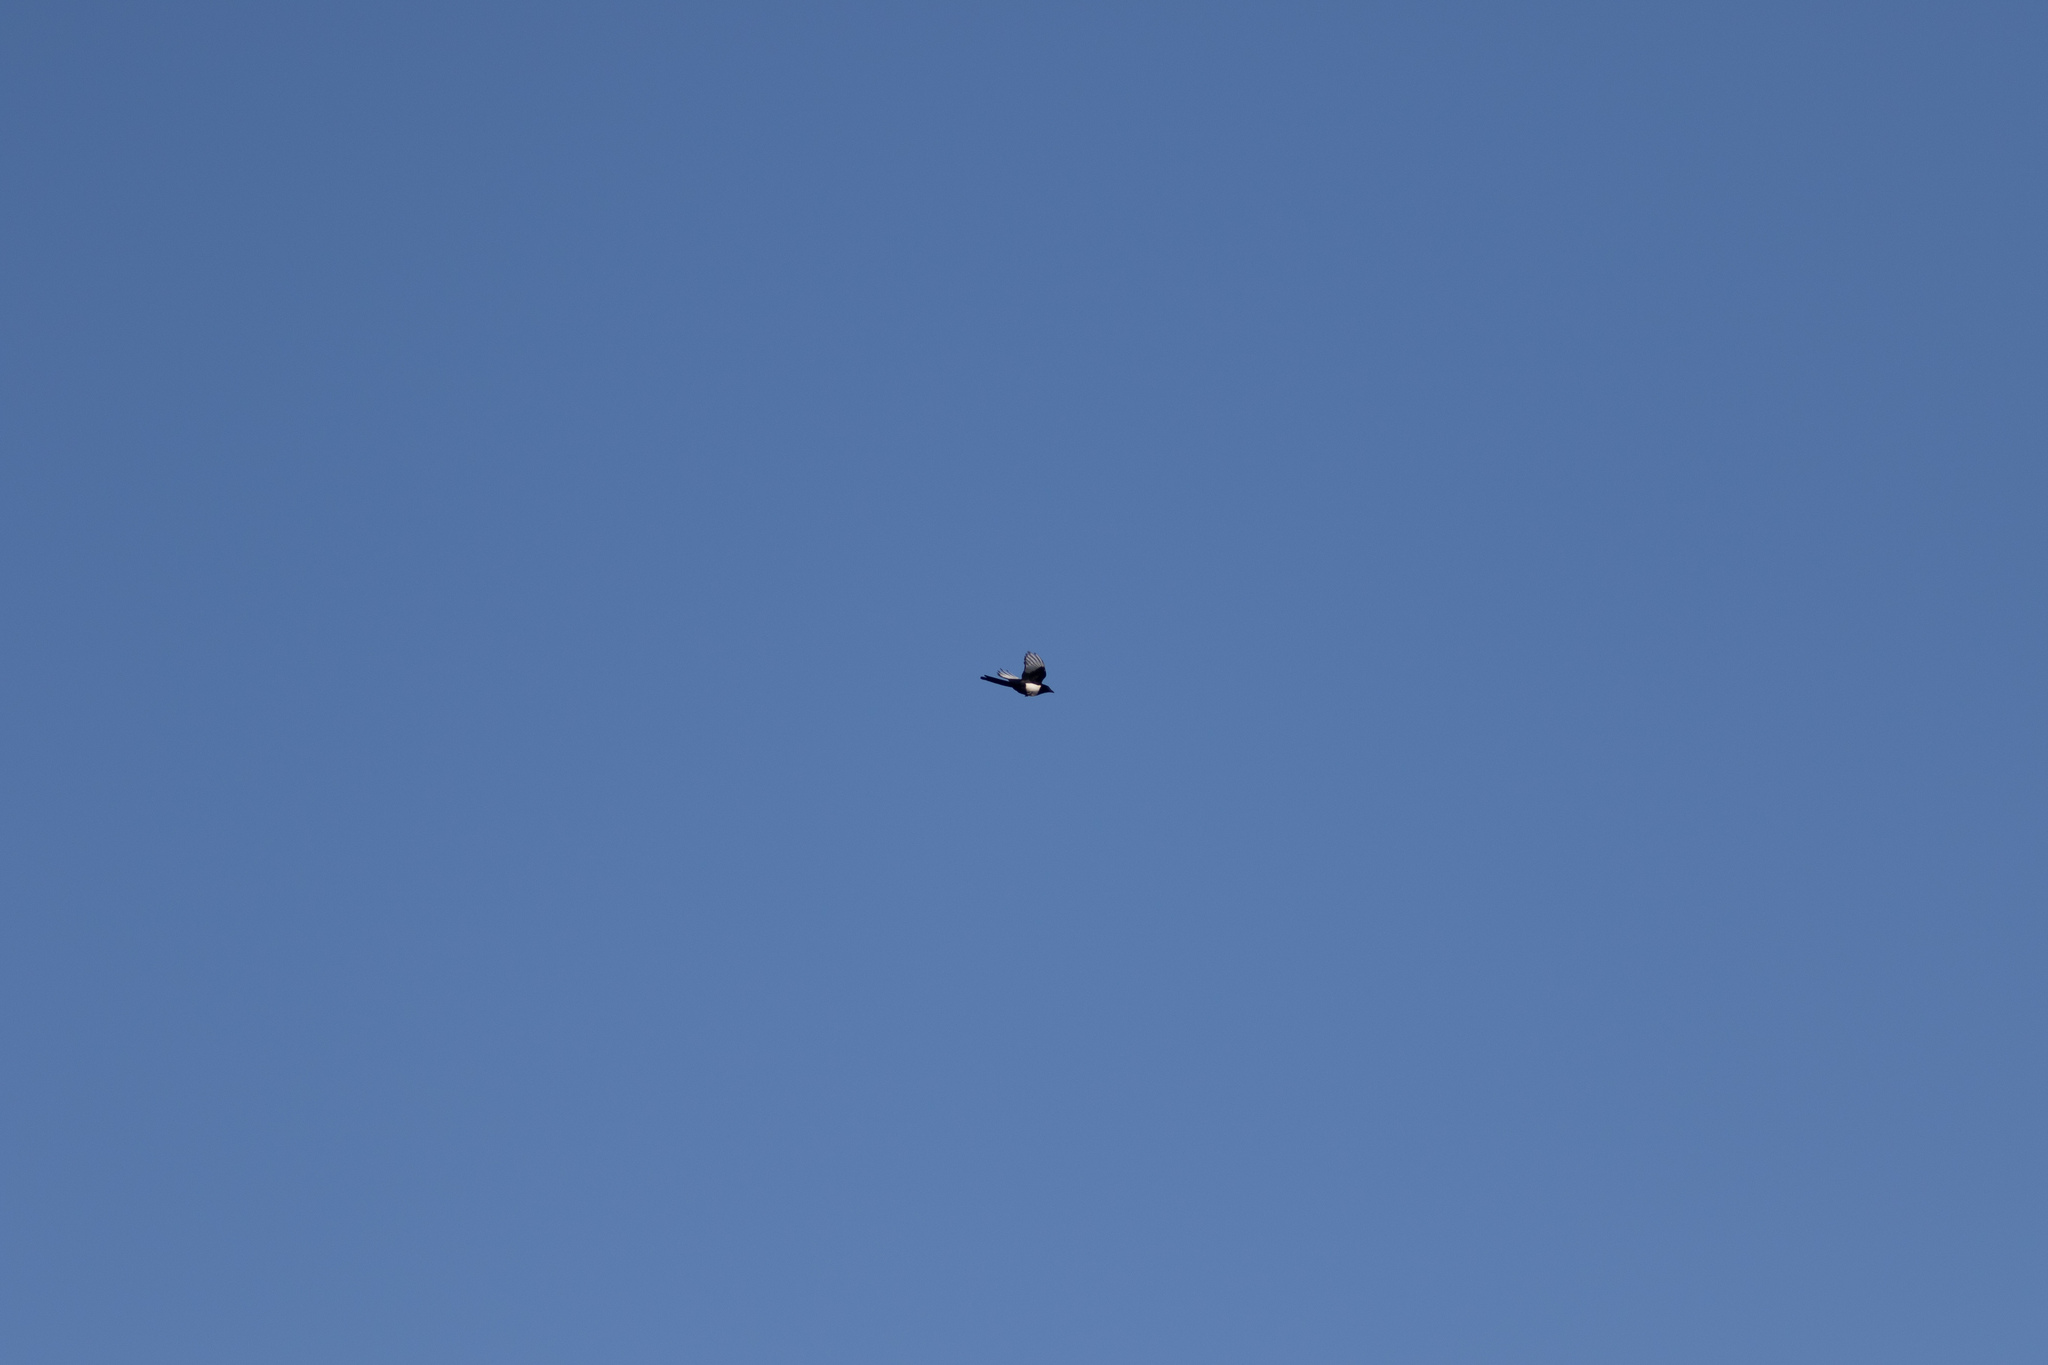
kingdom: Animalia
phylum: Chordata
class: Aves
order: Passeriformes
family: Corvidae
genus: Pica
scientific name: Pica pica
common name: Eurasian magpie
